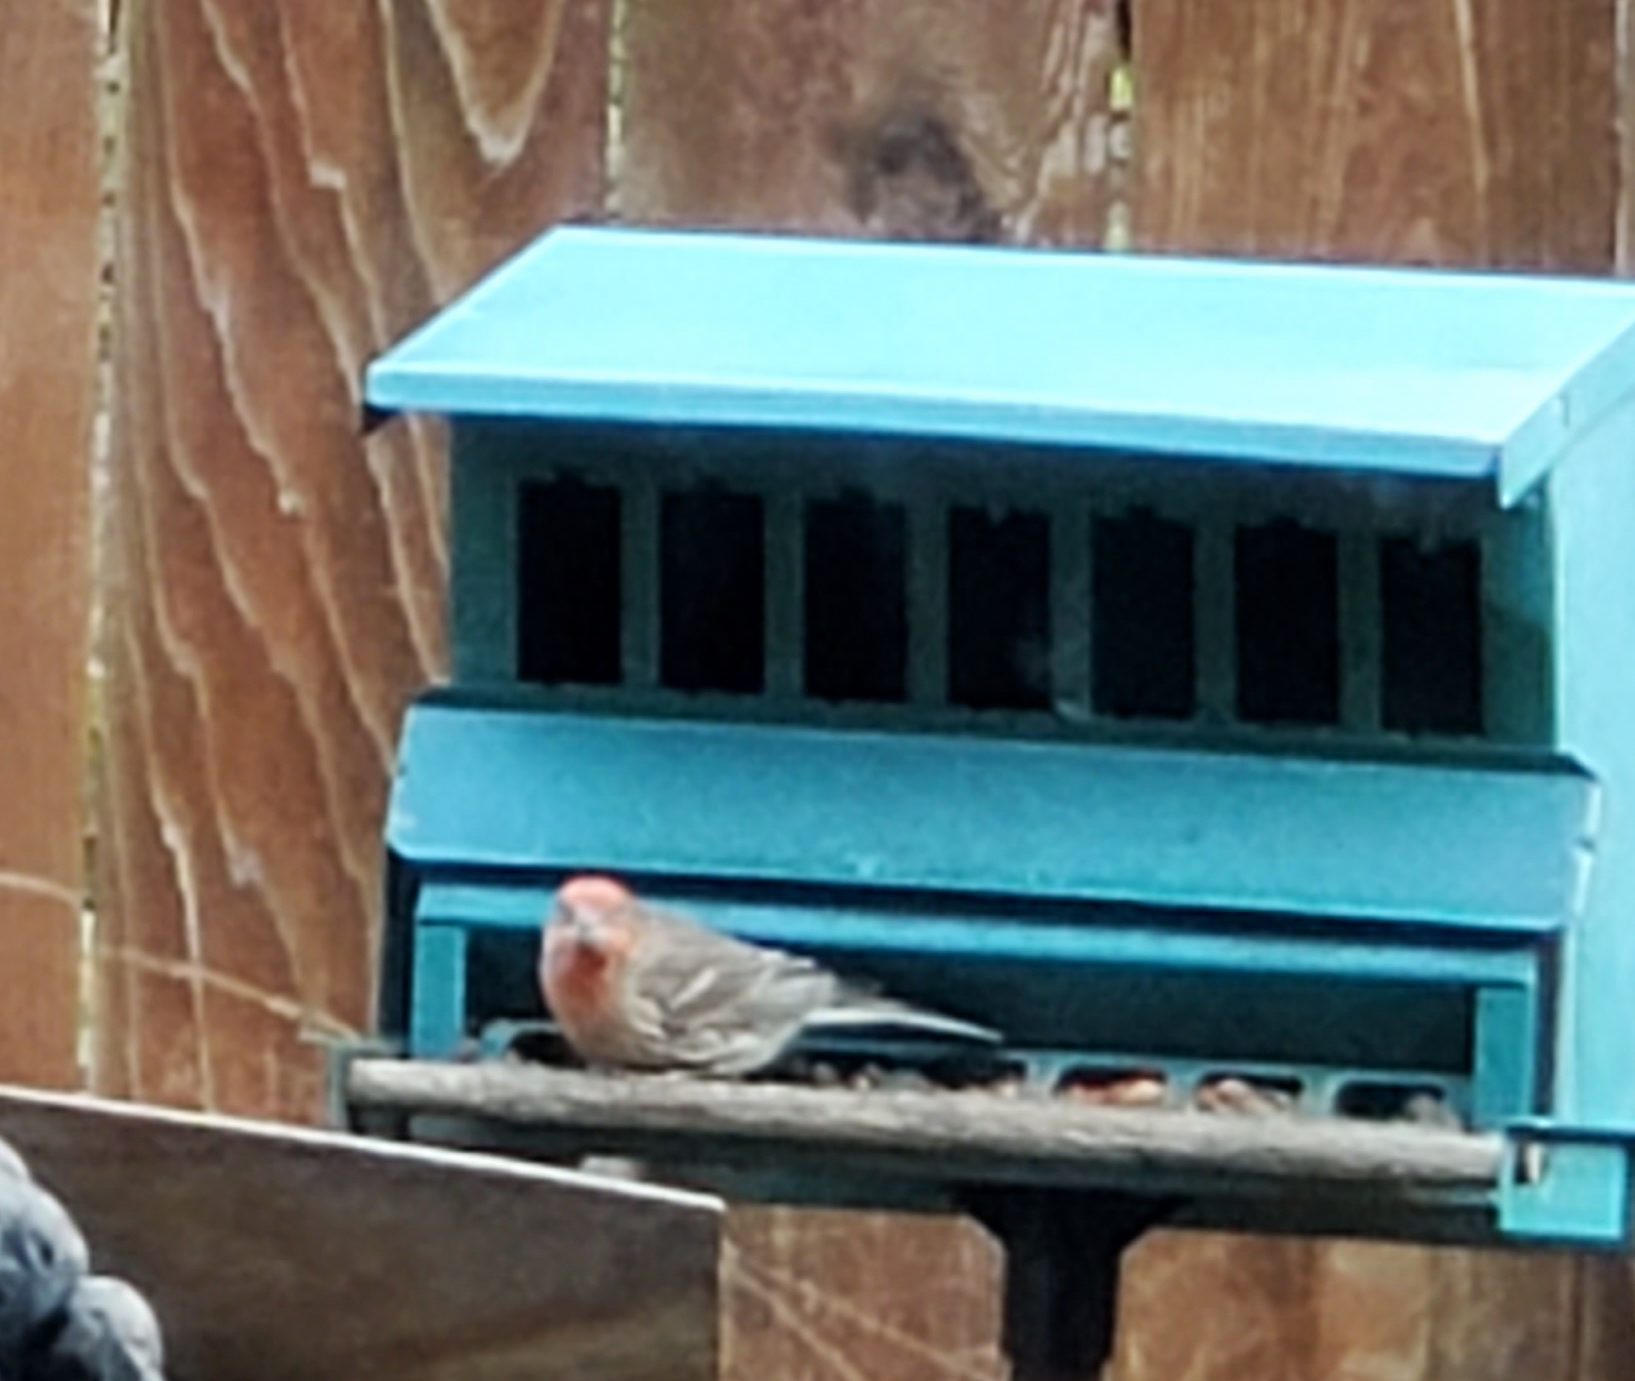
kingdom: Animalia
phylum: Chordata
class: Aves
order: Passeriformes
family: Fringillidae
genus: Haemorhous
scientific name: Haemorhous mexicanus
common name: House finch
